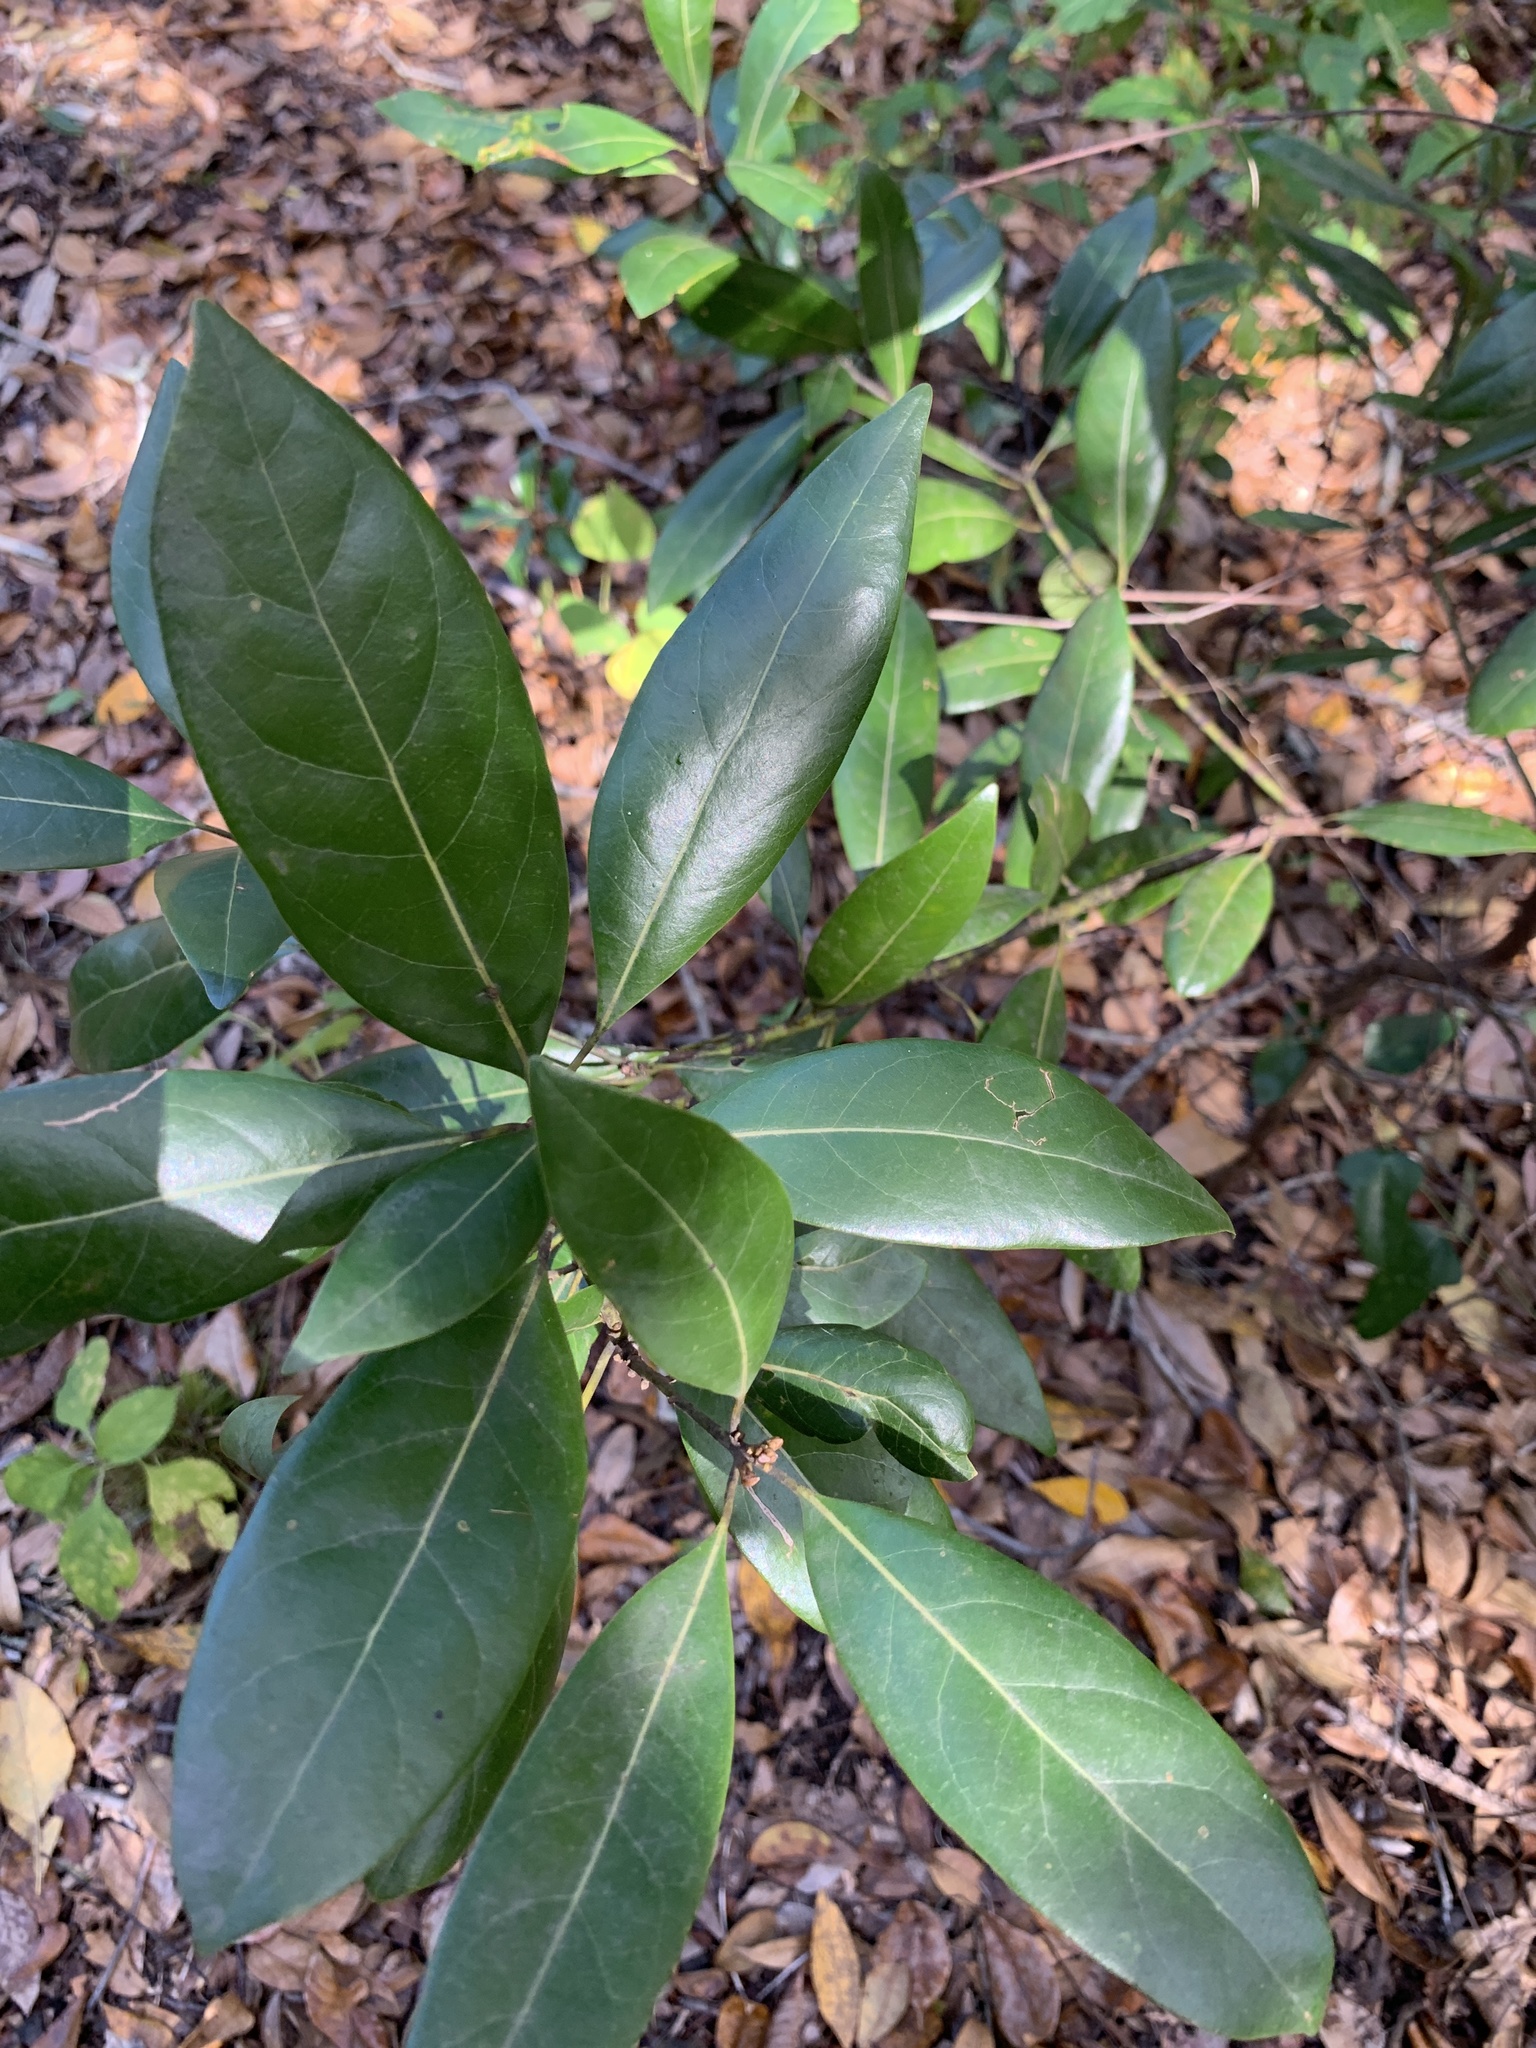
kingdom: Plantae
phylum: Tracheophyta
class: Magnoliopsida
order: Laurales
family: Lauraceae
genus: Persea
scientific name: Persea borbonia
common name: Redbay
